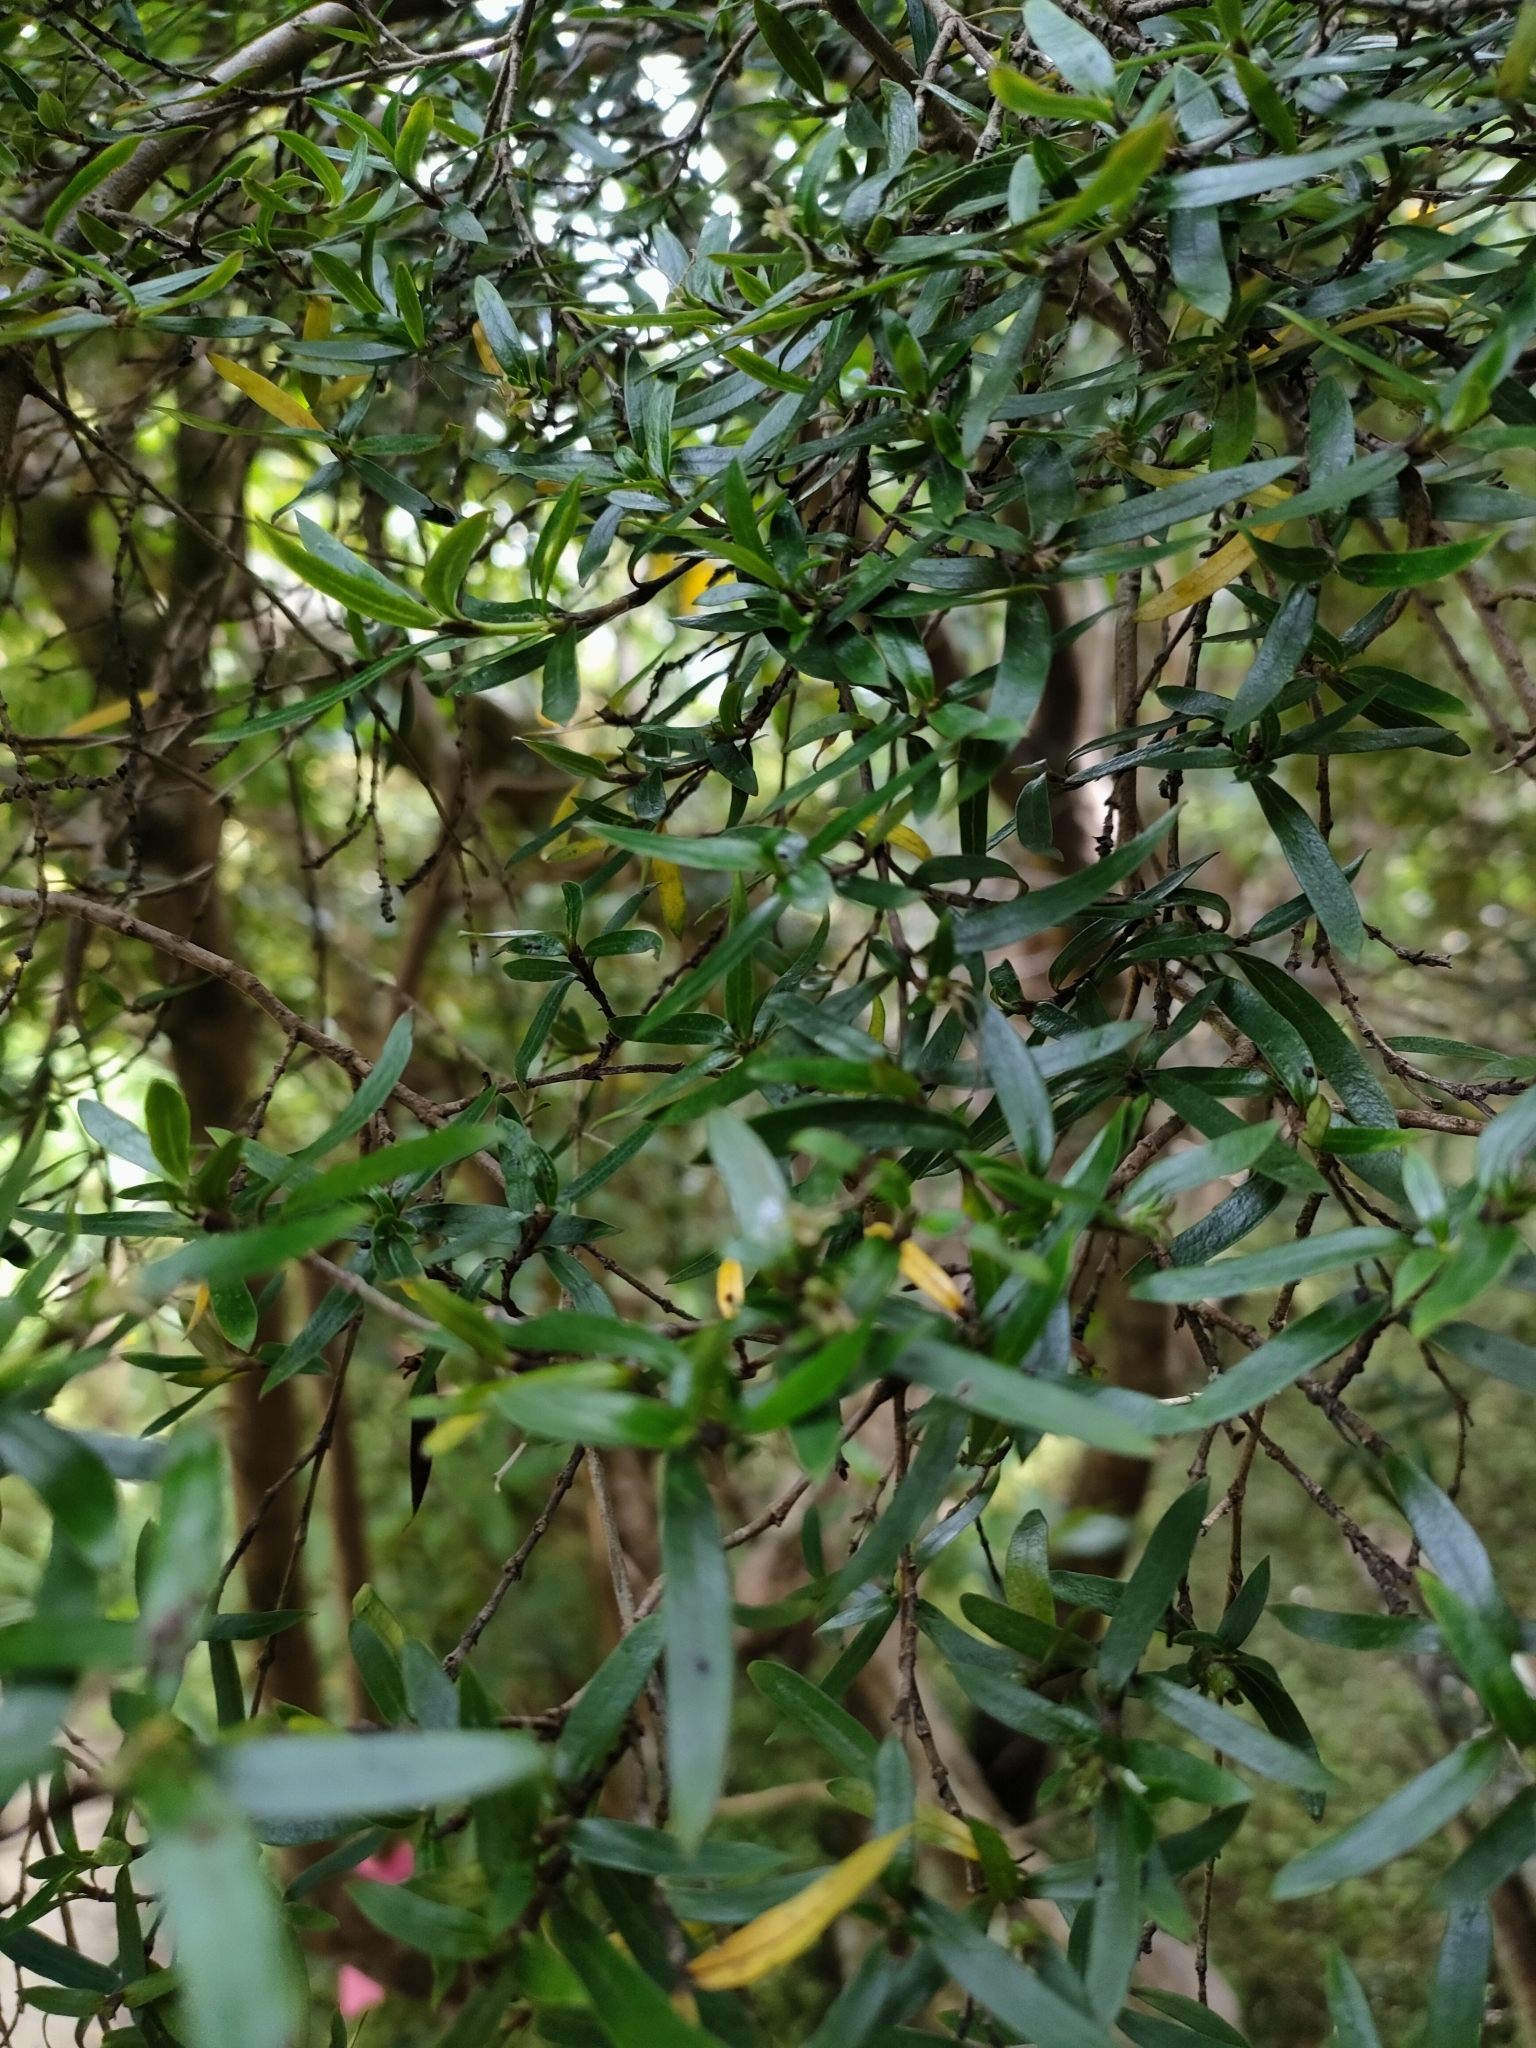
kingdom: Plantae
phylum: Tracheophyta
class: Magnoliopsida
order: Gentianales
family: Rubiaceae
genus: Coprosma
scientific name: Coprosma linariifolia
